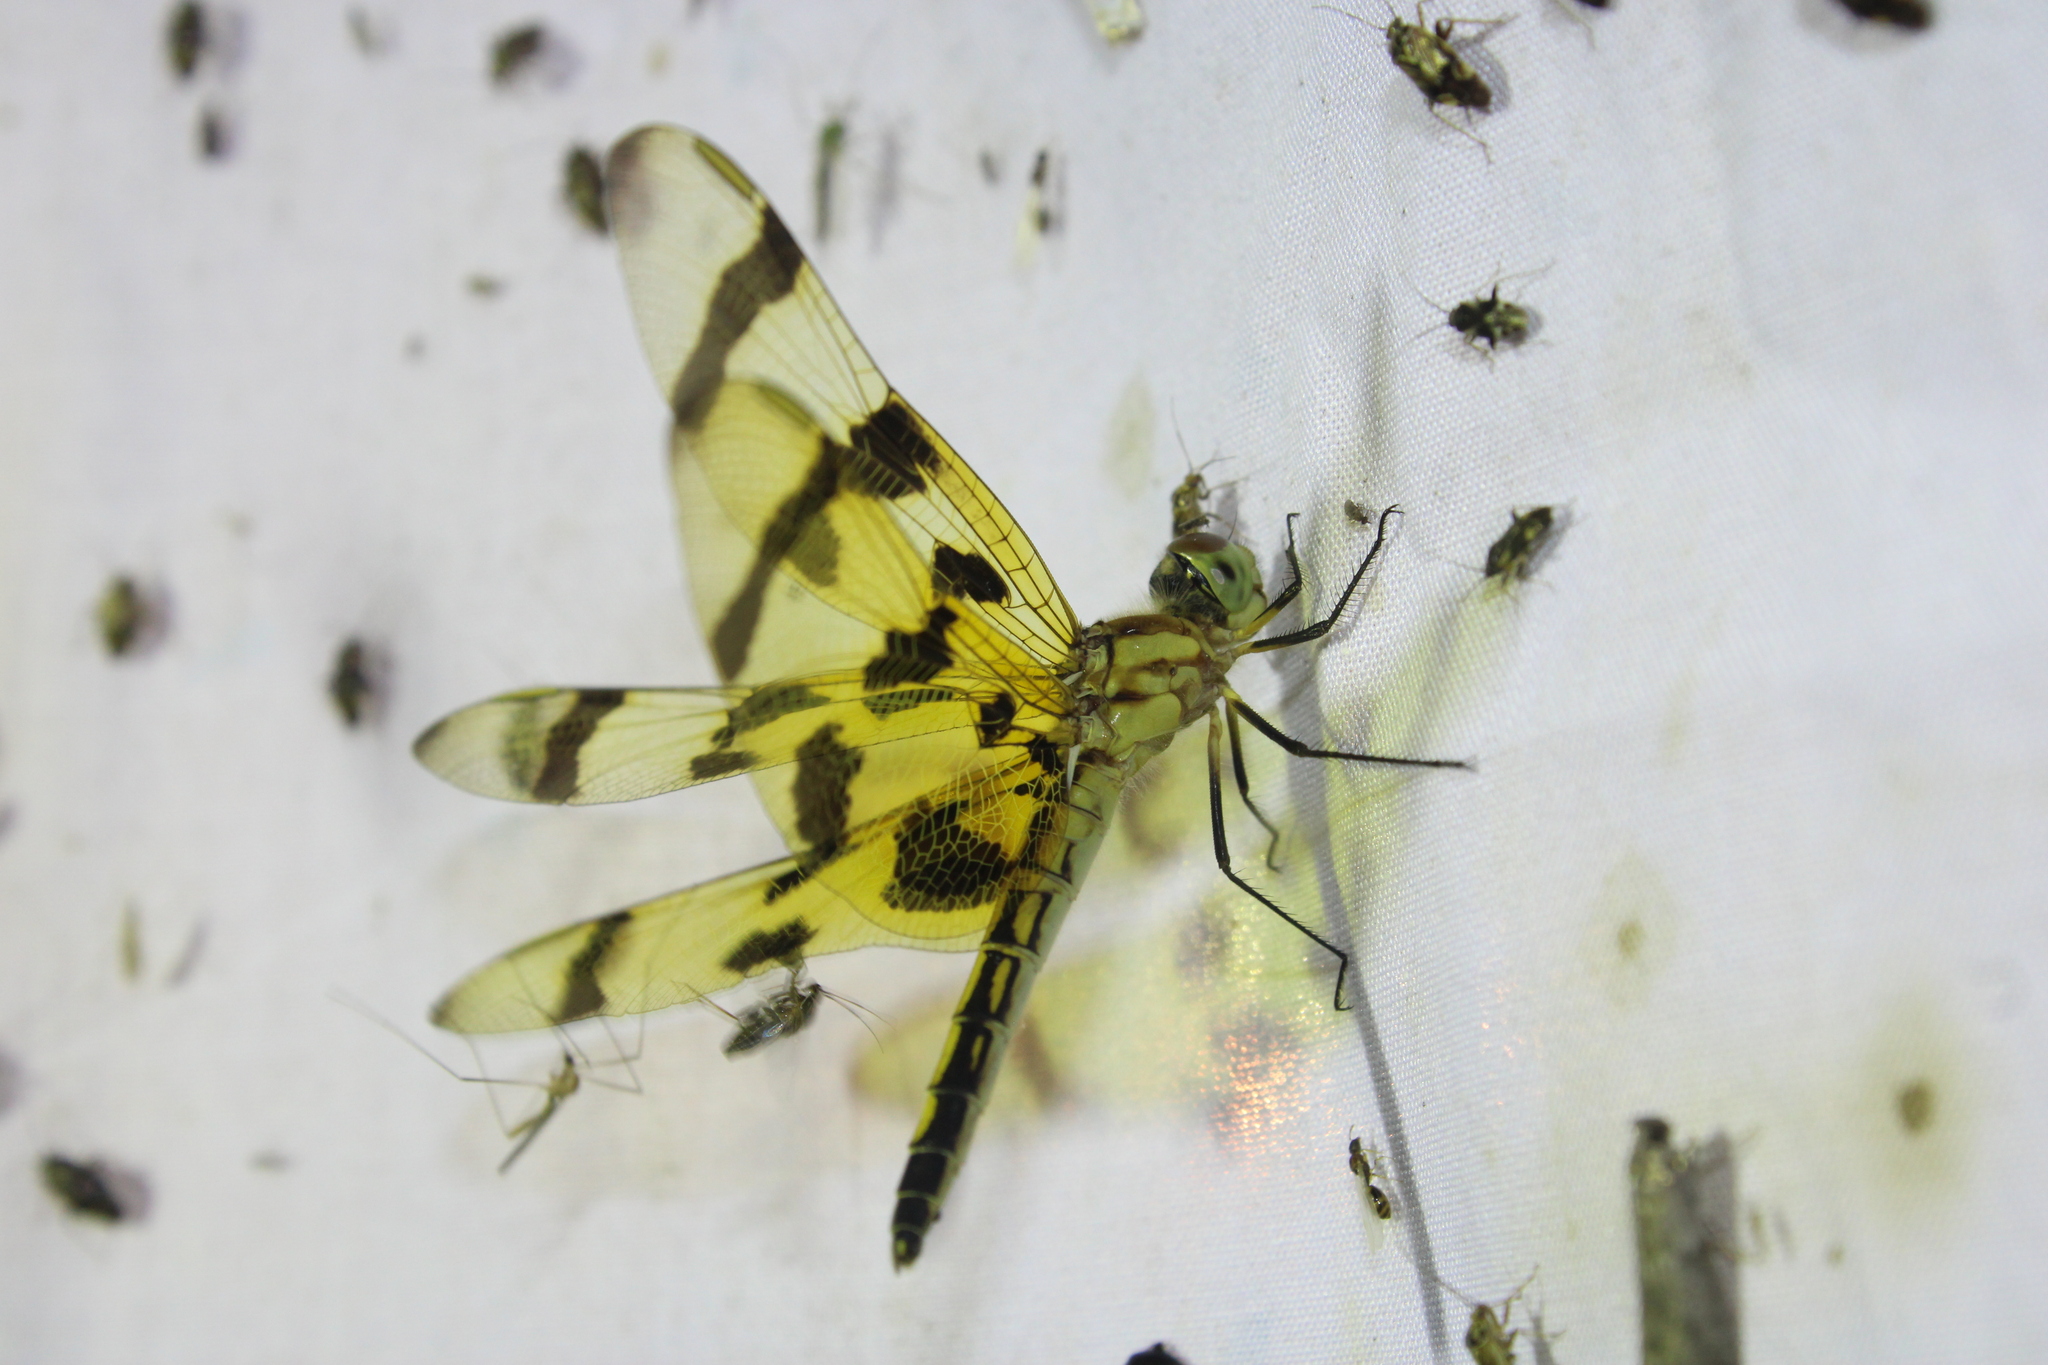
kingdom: Animalia
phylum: Arthropoda
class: Insecta
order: Odonata
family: Libellulidae
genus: Celithemis
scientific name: Celithemis eponina
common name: Halloween pennant
